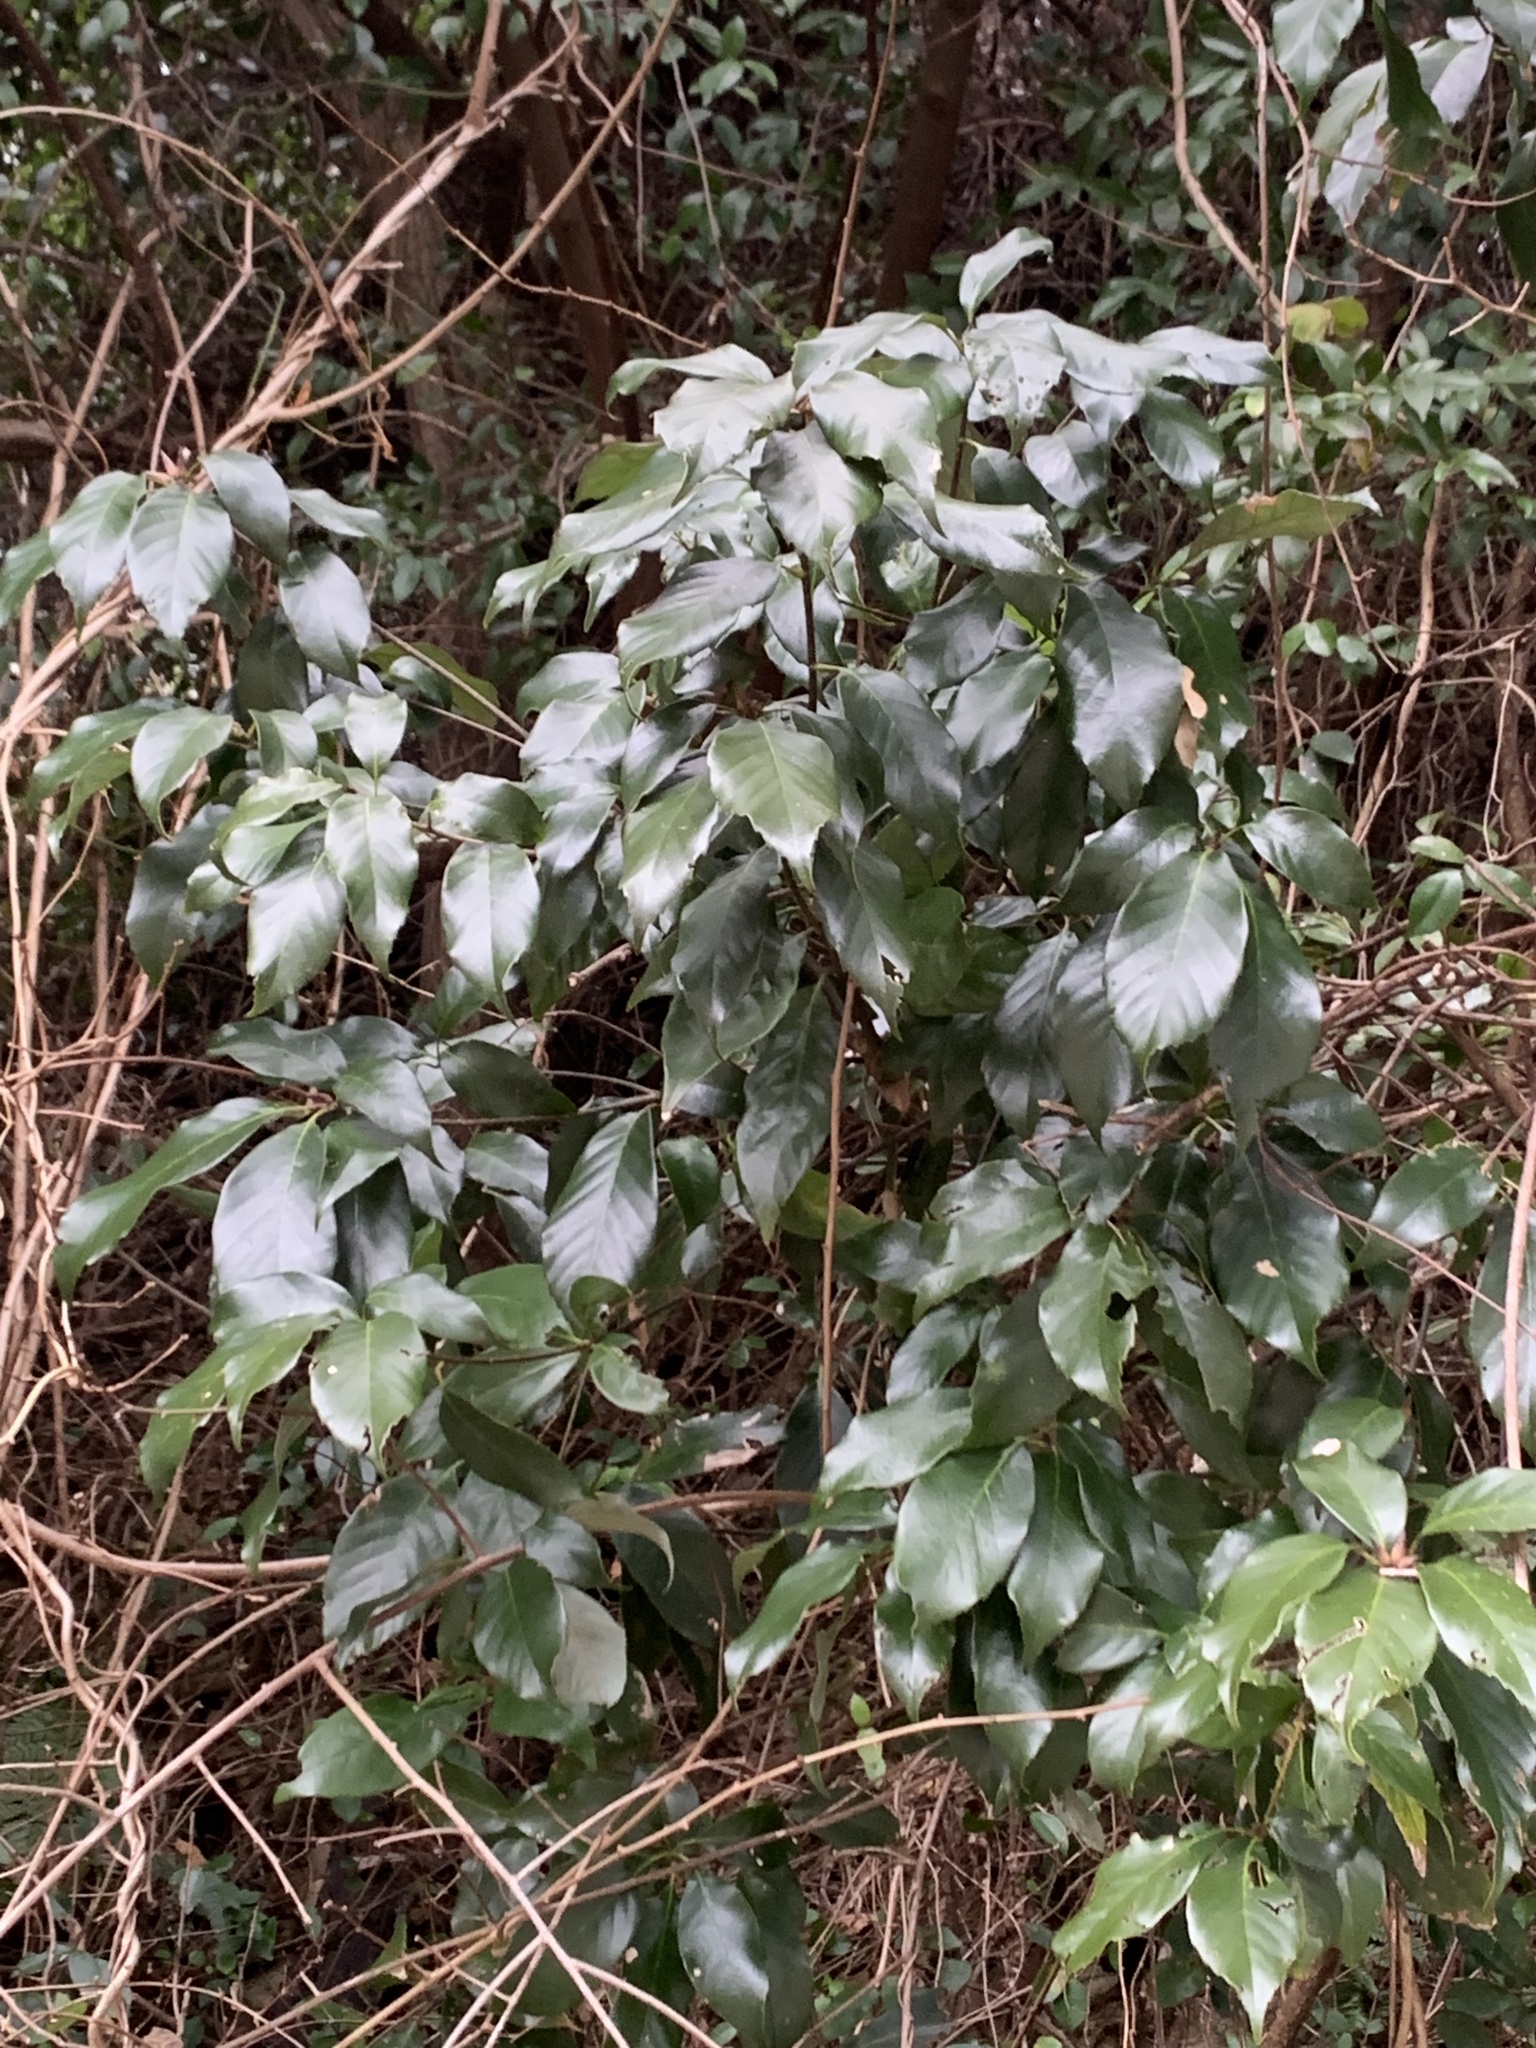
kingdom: Plantae
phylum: Tracheophyta
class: Magnoliopsida
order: Fagales
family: Fagaceae
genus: Quercus
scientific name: Quercus glauca
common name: Ring-cup oak
